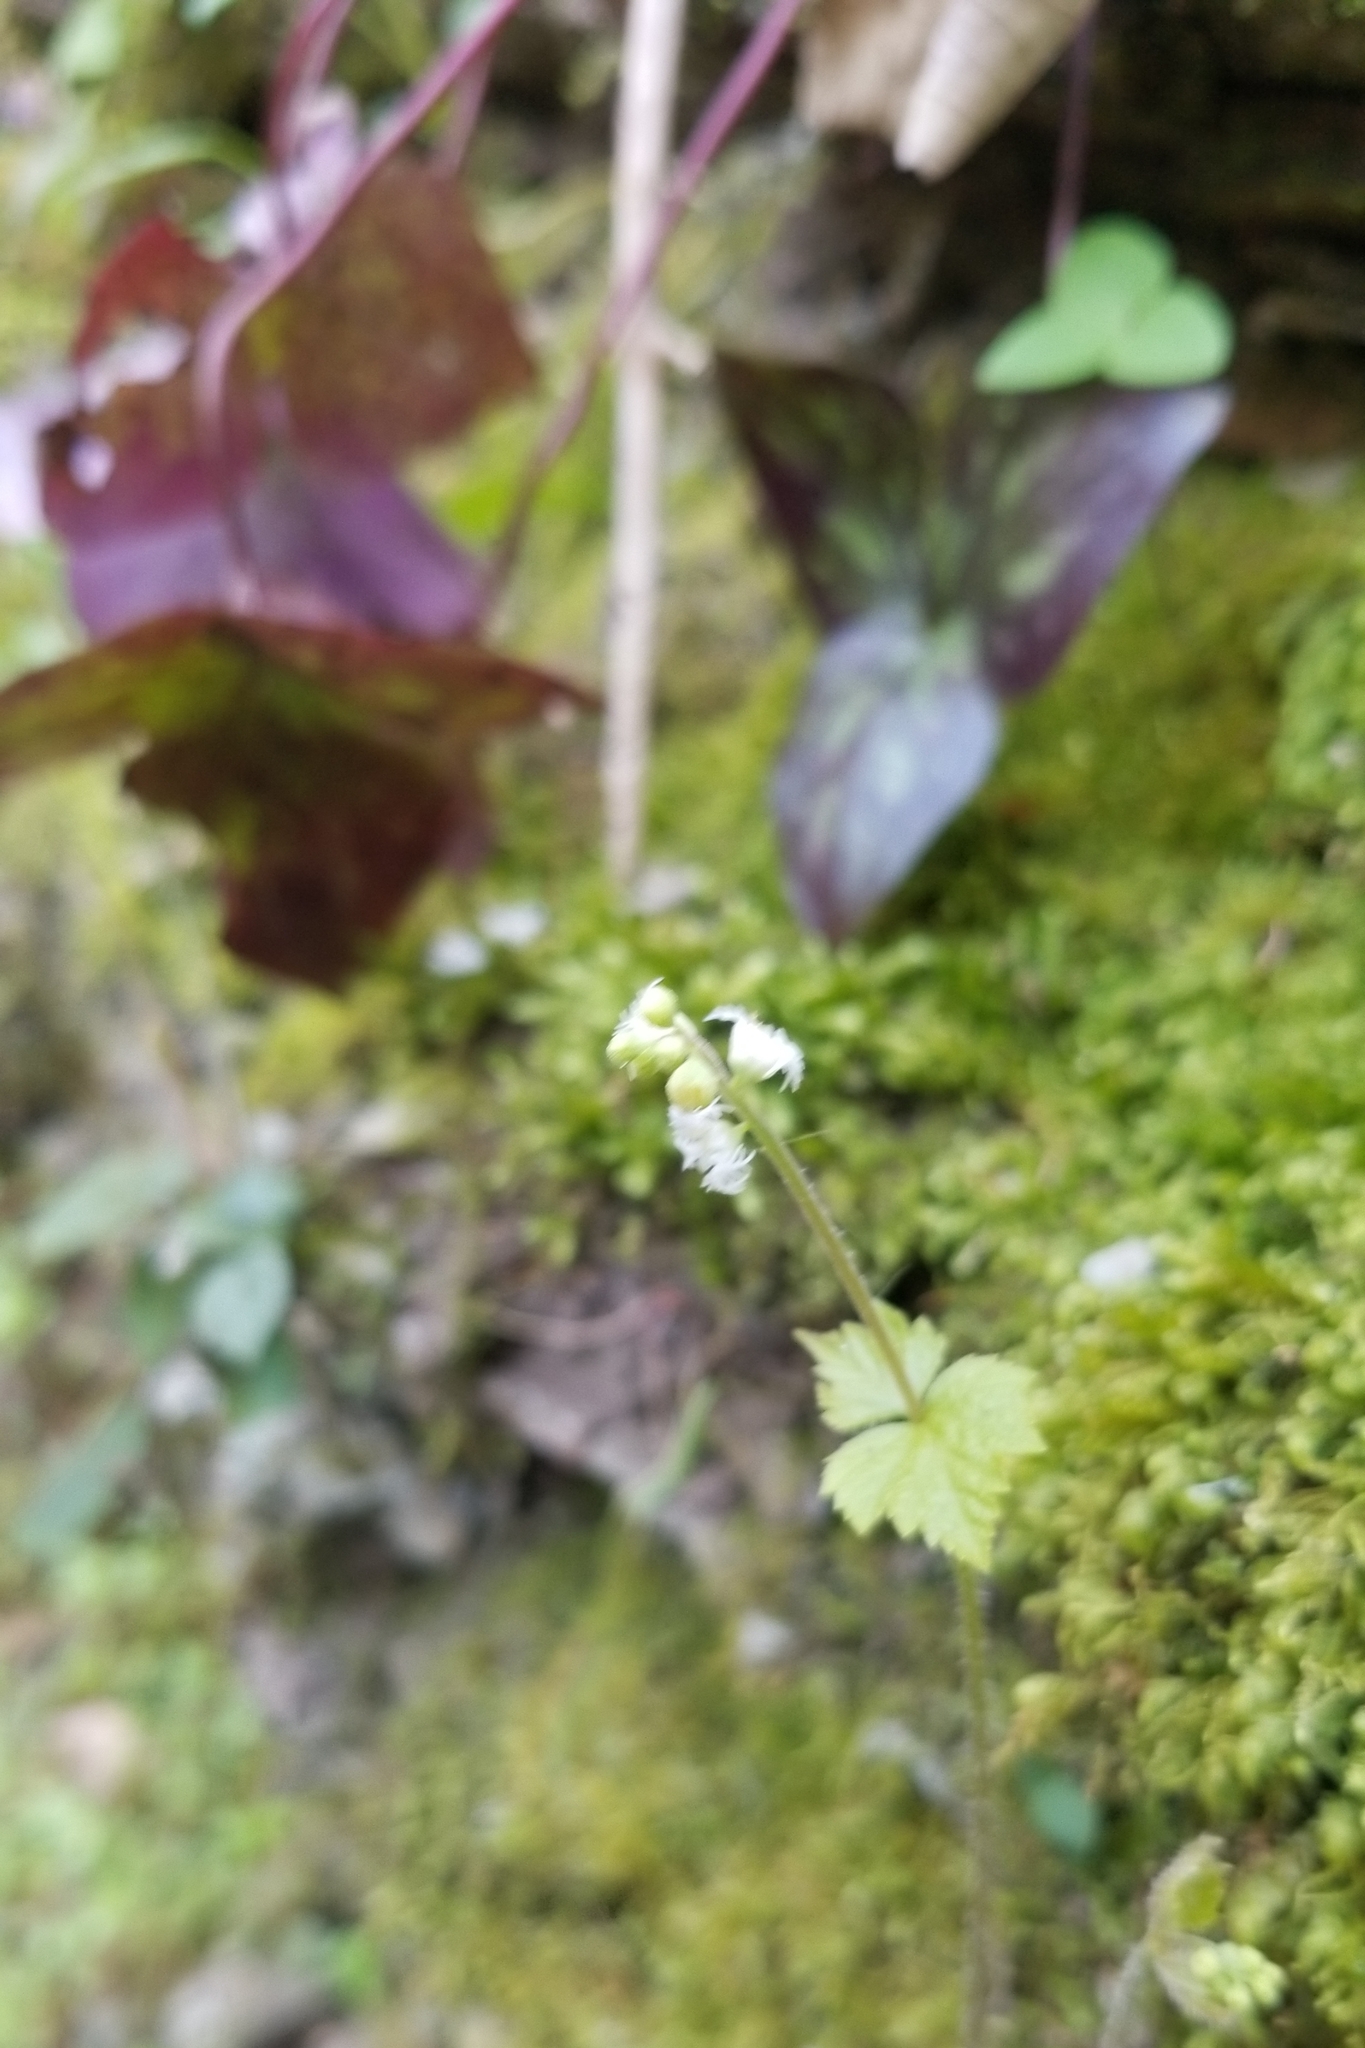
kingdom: Plantae
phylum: Tracheophyta
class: Magnoliopsida
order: Saxifragales
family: Saxifragaceae
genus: Mitella
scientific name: Mitella diphylla
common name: Coolwort
